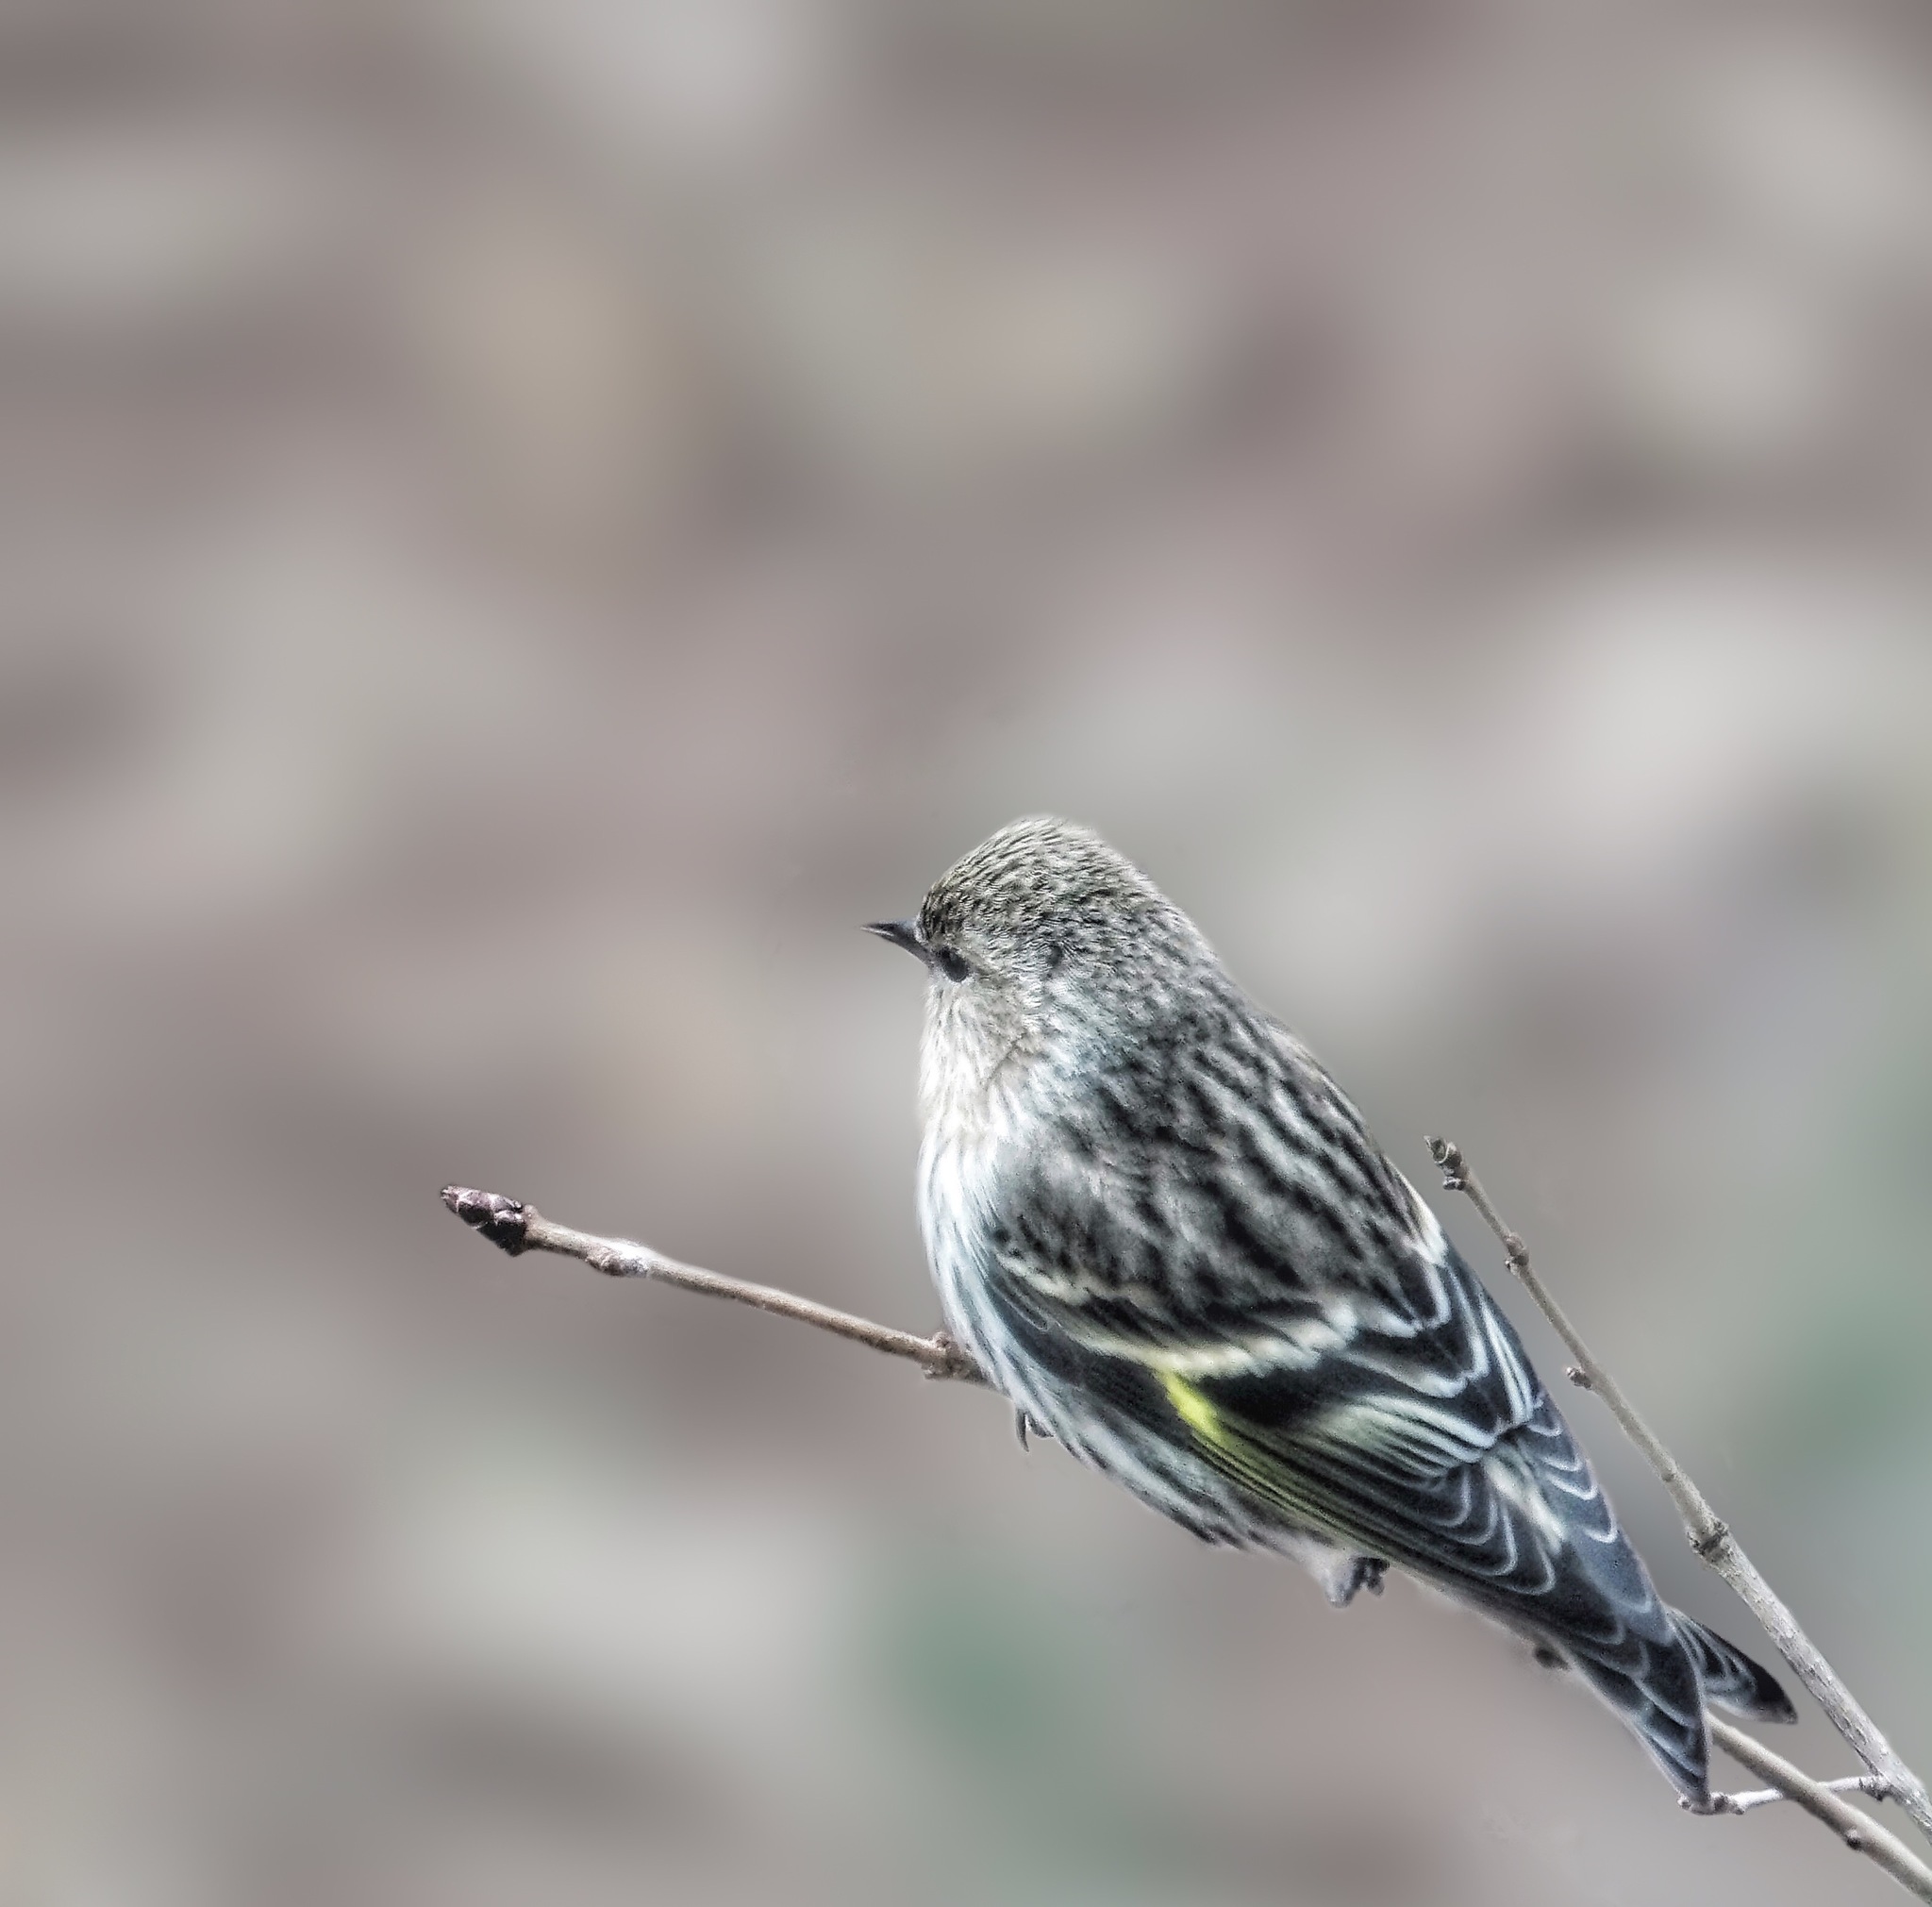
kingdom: Animalia
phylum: Chordata
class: Aves
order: Passeriformes
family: Fringillidae
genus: Spinus
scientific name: Spinus pinus
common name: Pine siskin
